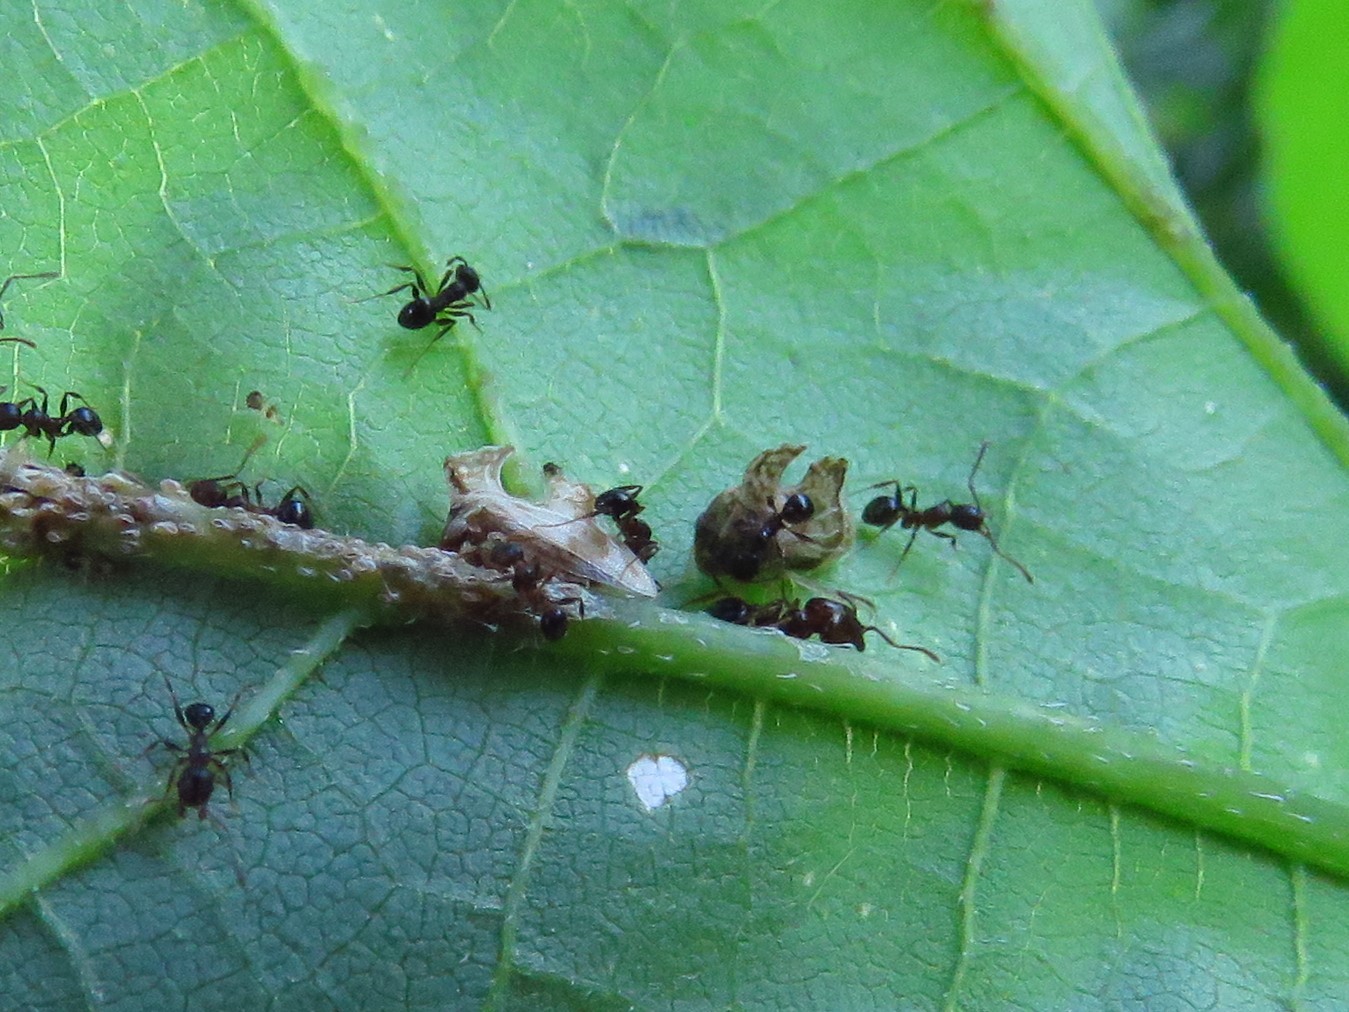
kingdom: Animalia
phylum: Arthropoda
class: Insecta
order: Hemiptera
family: Membracidae
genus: Entylia
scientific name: Entylia carinata
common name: Keeled treehopper
